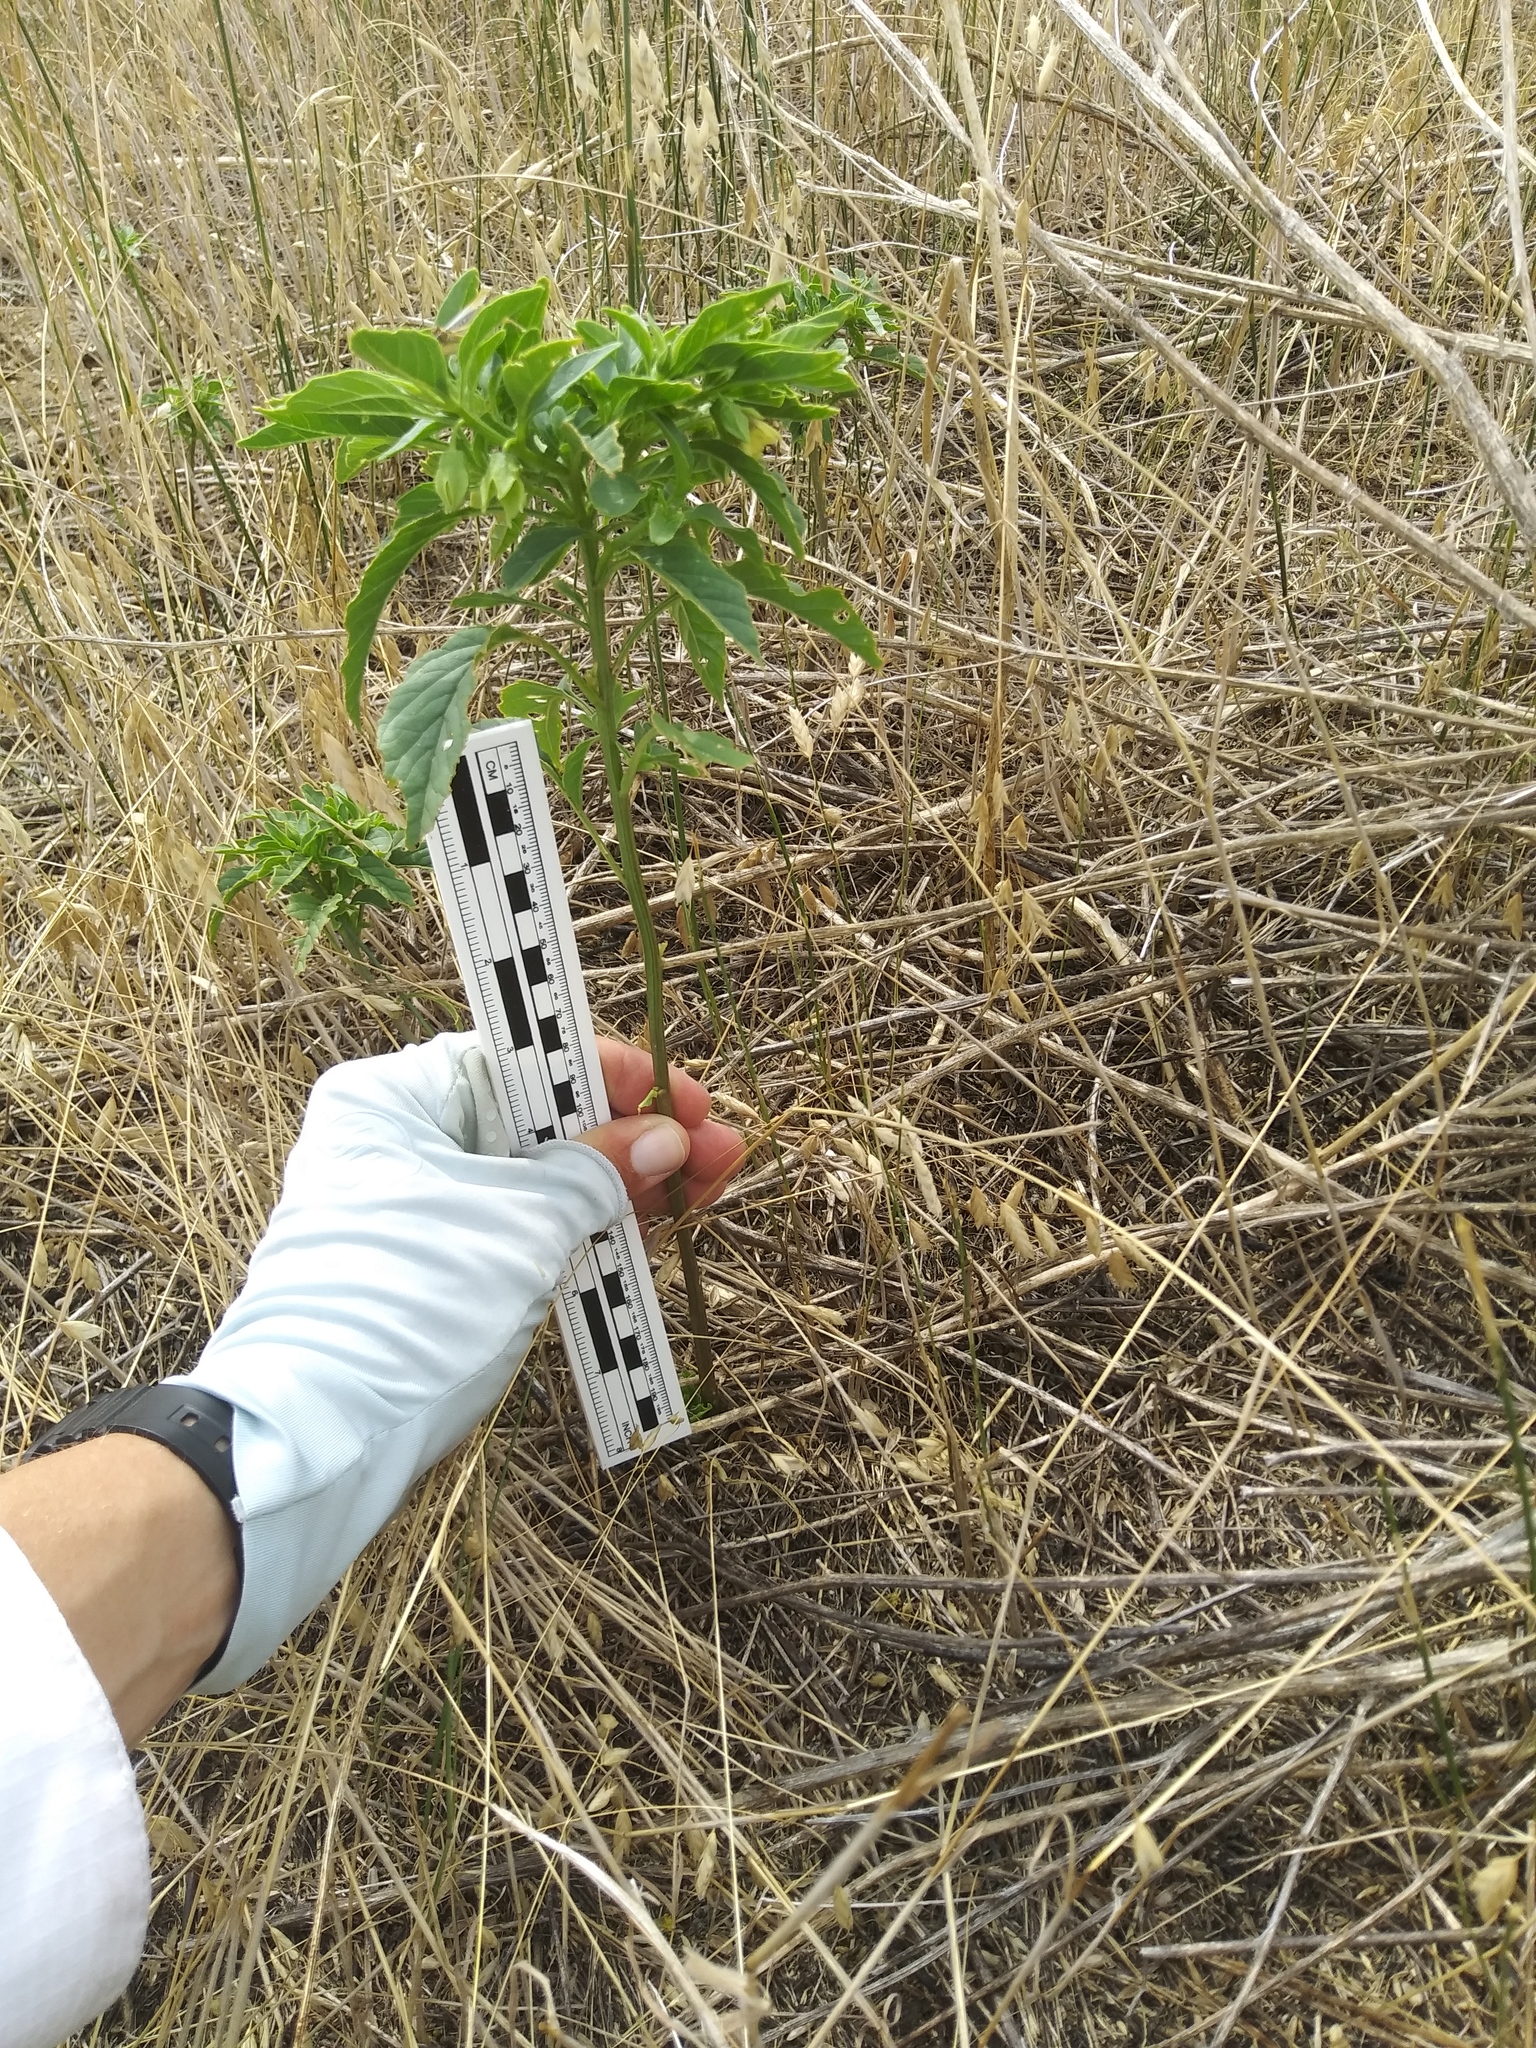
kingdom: Plantae
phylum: Tracheophyta
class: Magnoliopsida
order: Solanales
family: Solanaceae
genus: Physalis
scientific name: Physalis longifolia
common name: Common ground-cherry
